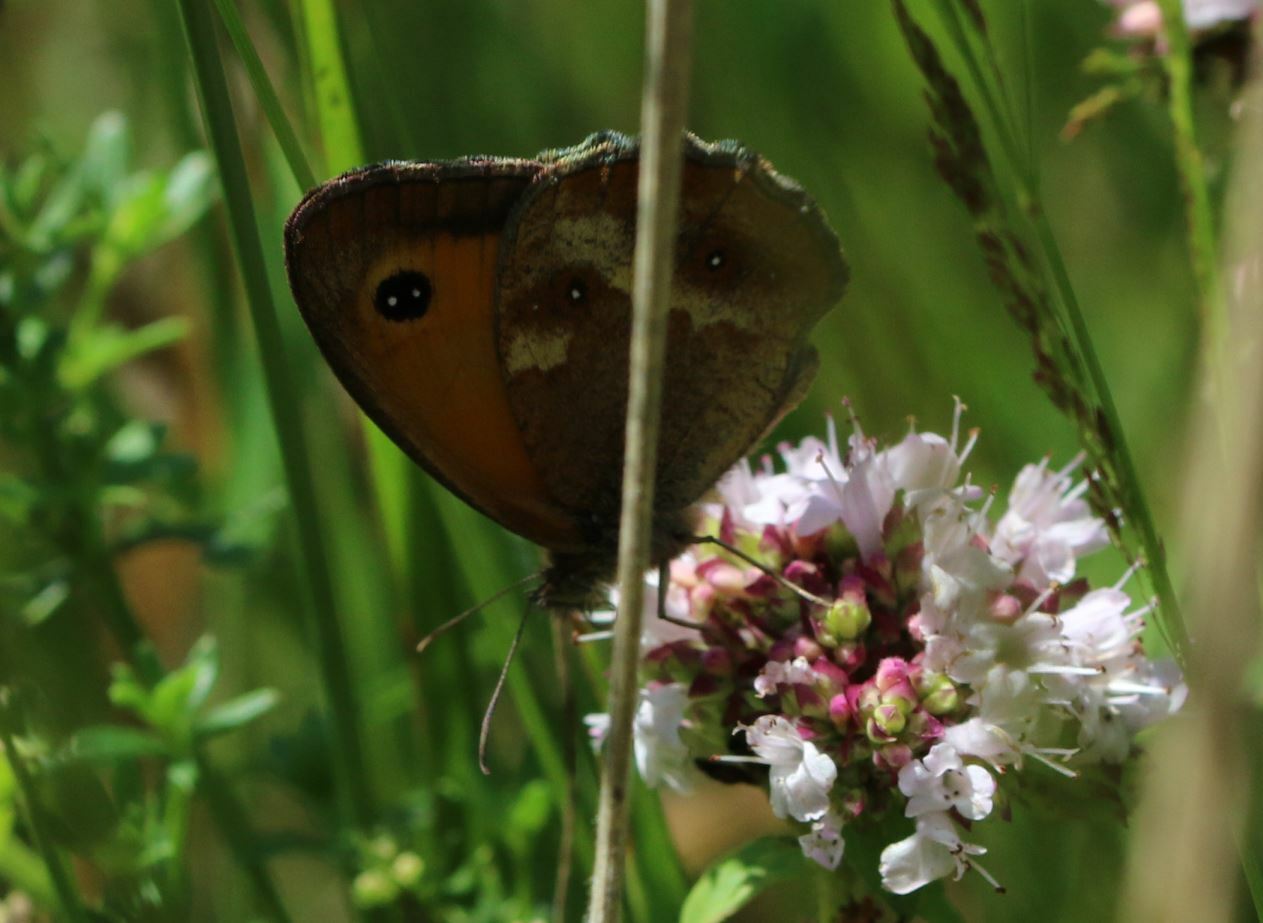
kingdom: Animalia
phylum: Arthropoda
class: Insecta
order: Lepidoptera
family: Nymphalidae
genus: Pyronia
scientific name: Pyronia tithonus
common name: Gatekeeper
